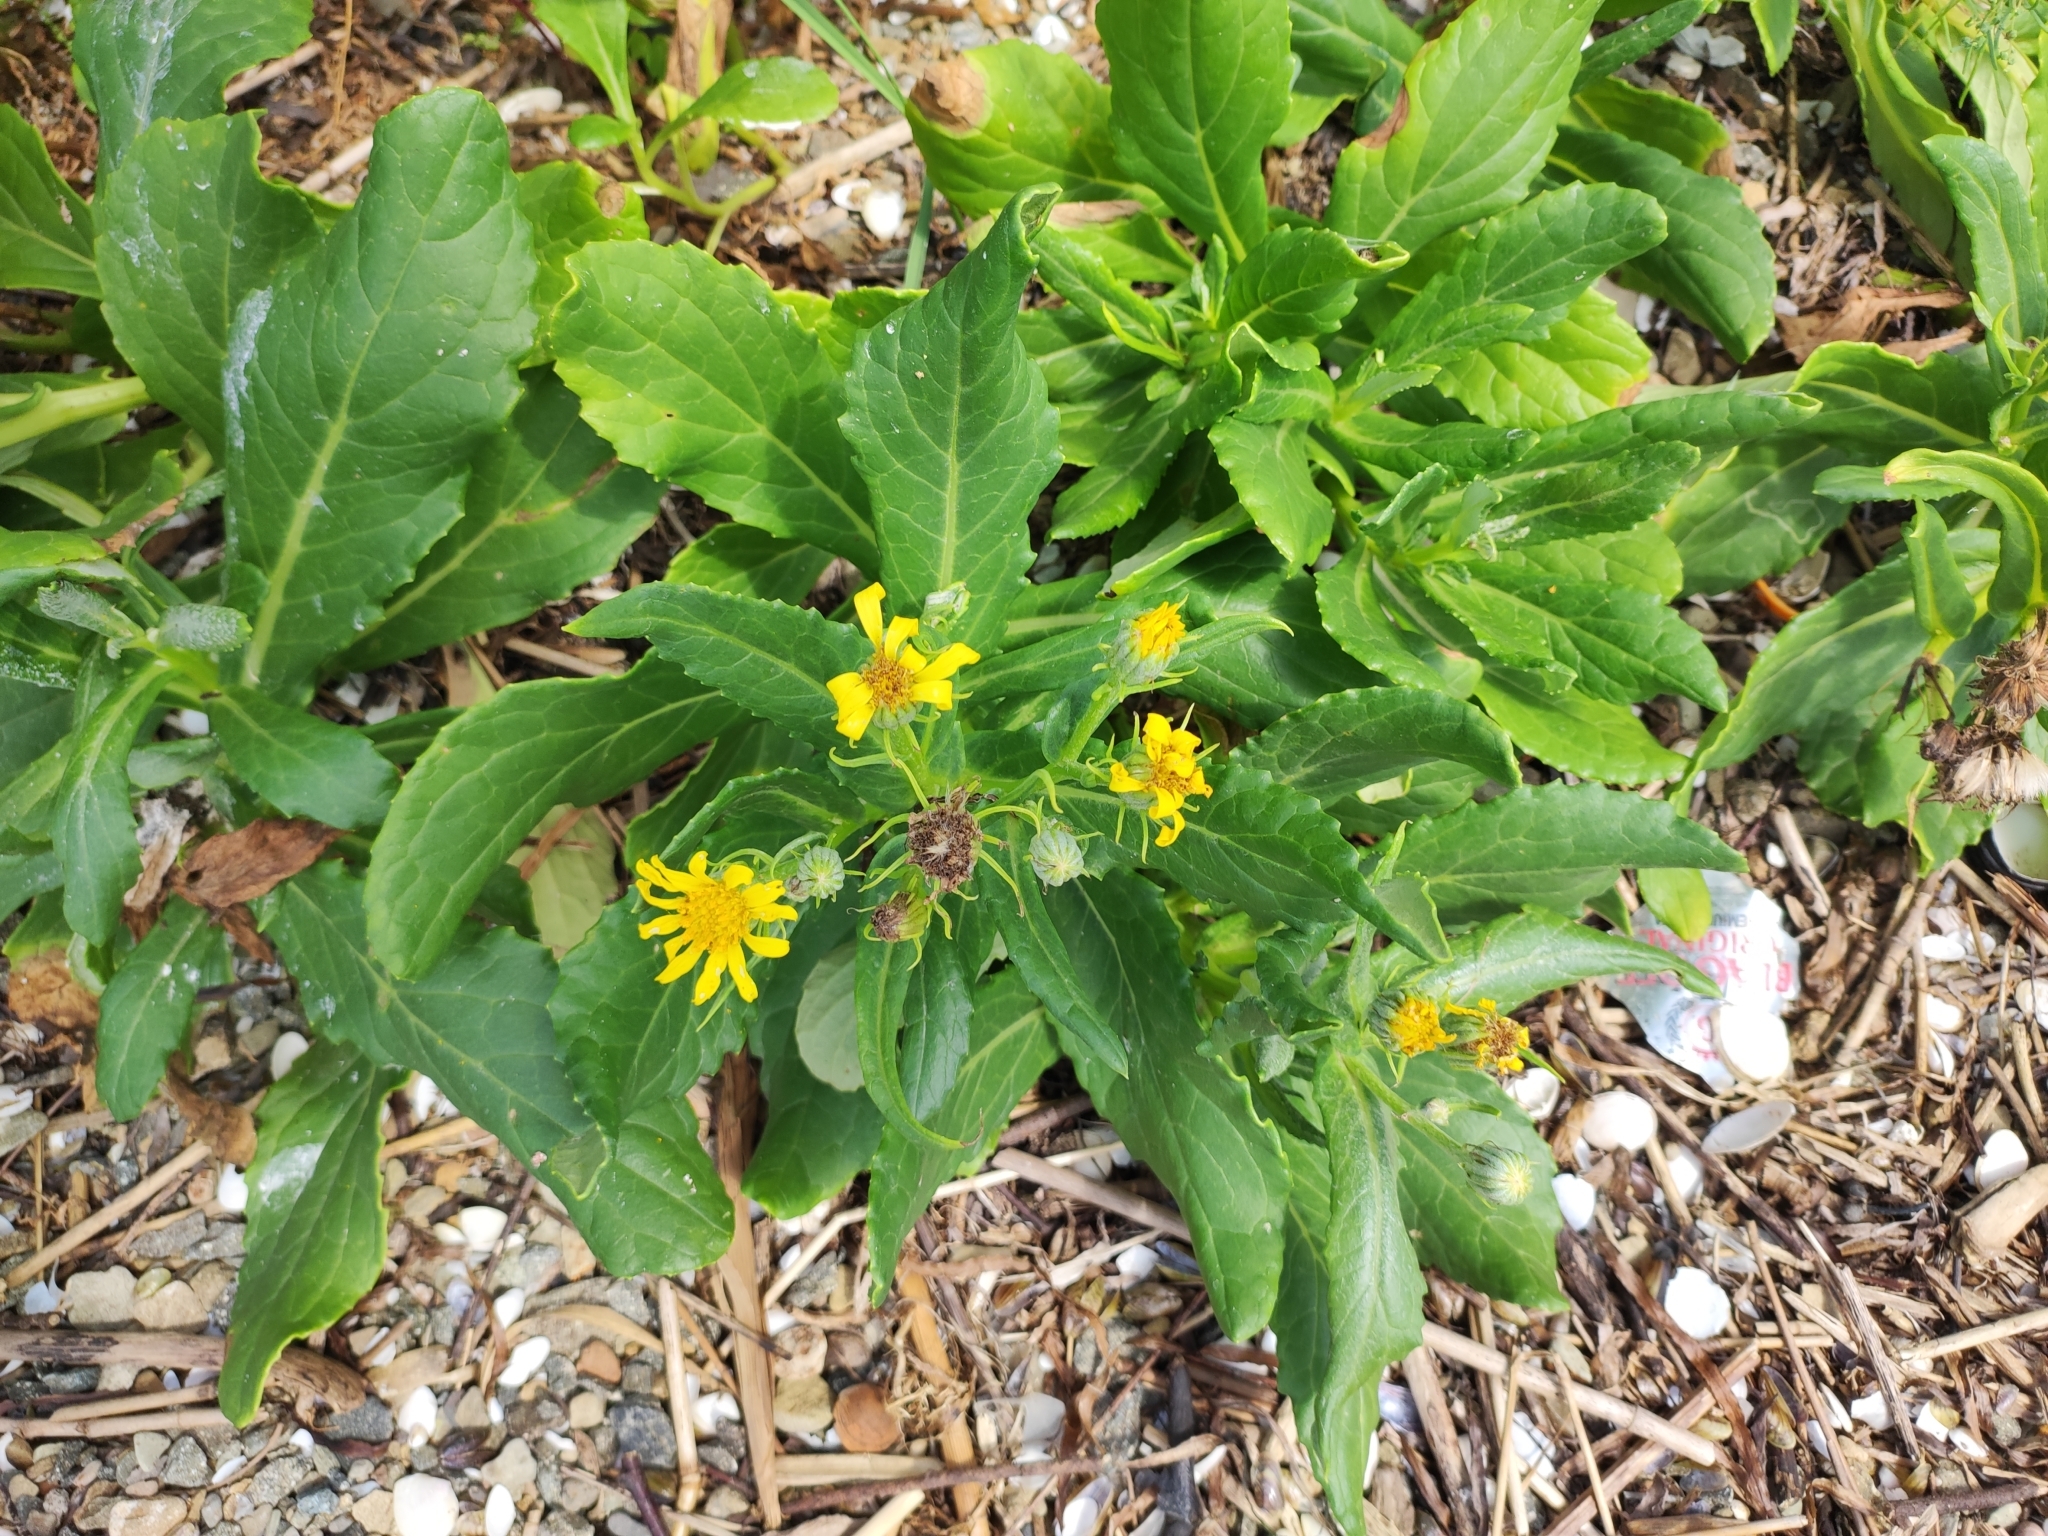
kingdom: Plantae
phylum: Tracheophyta
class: Magnoliopsida
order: Asterales
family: Asteraceae
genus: Jacobaea
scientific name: Jacobaea pseudoarnica
